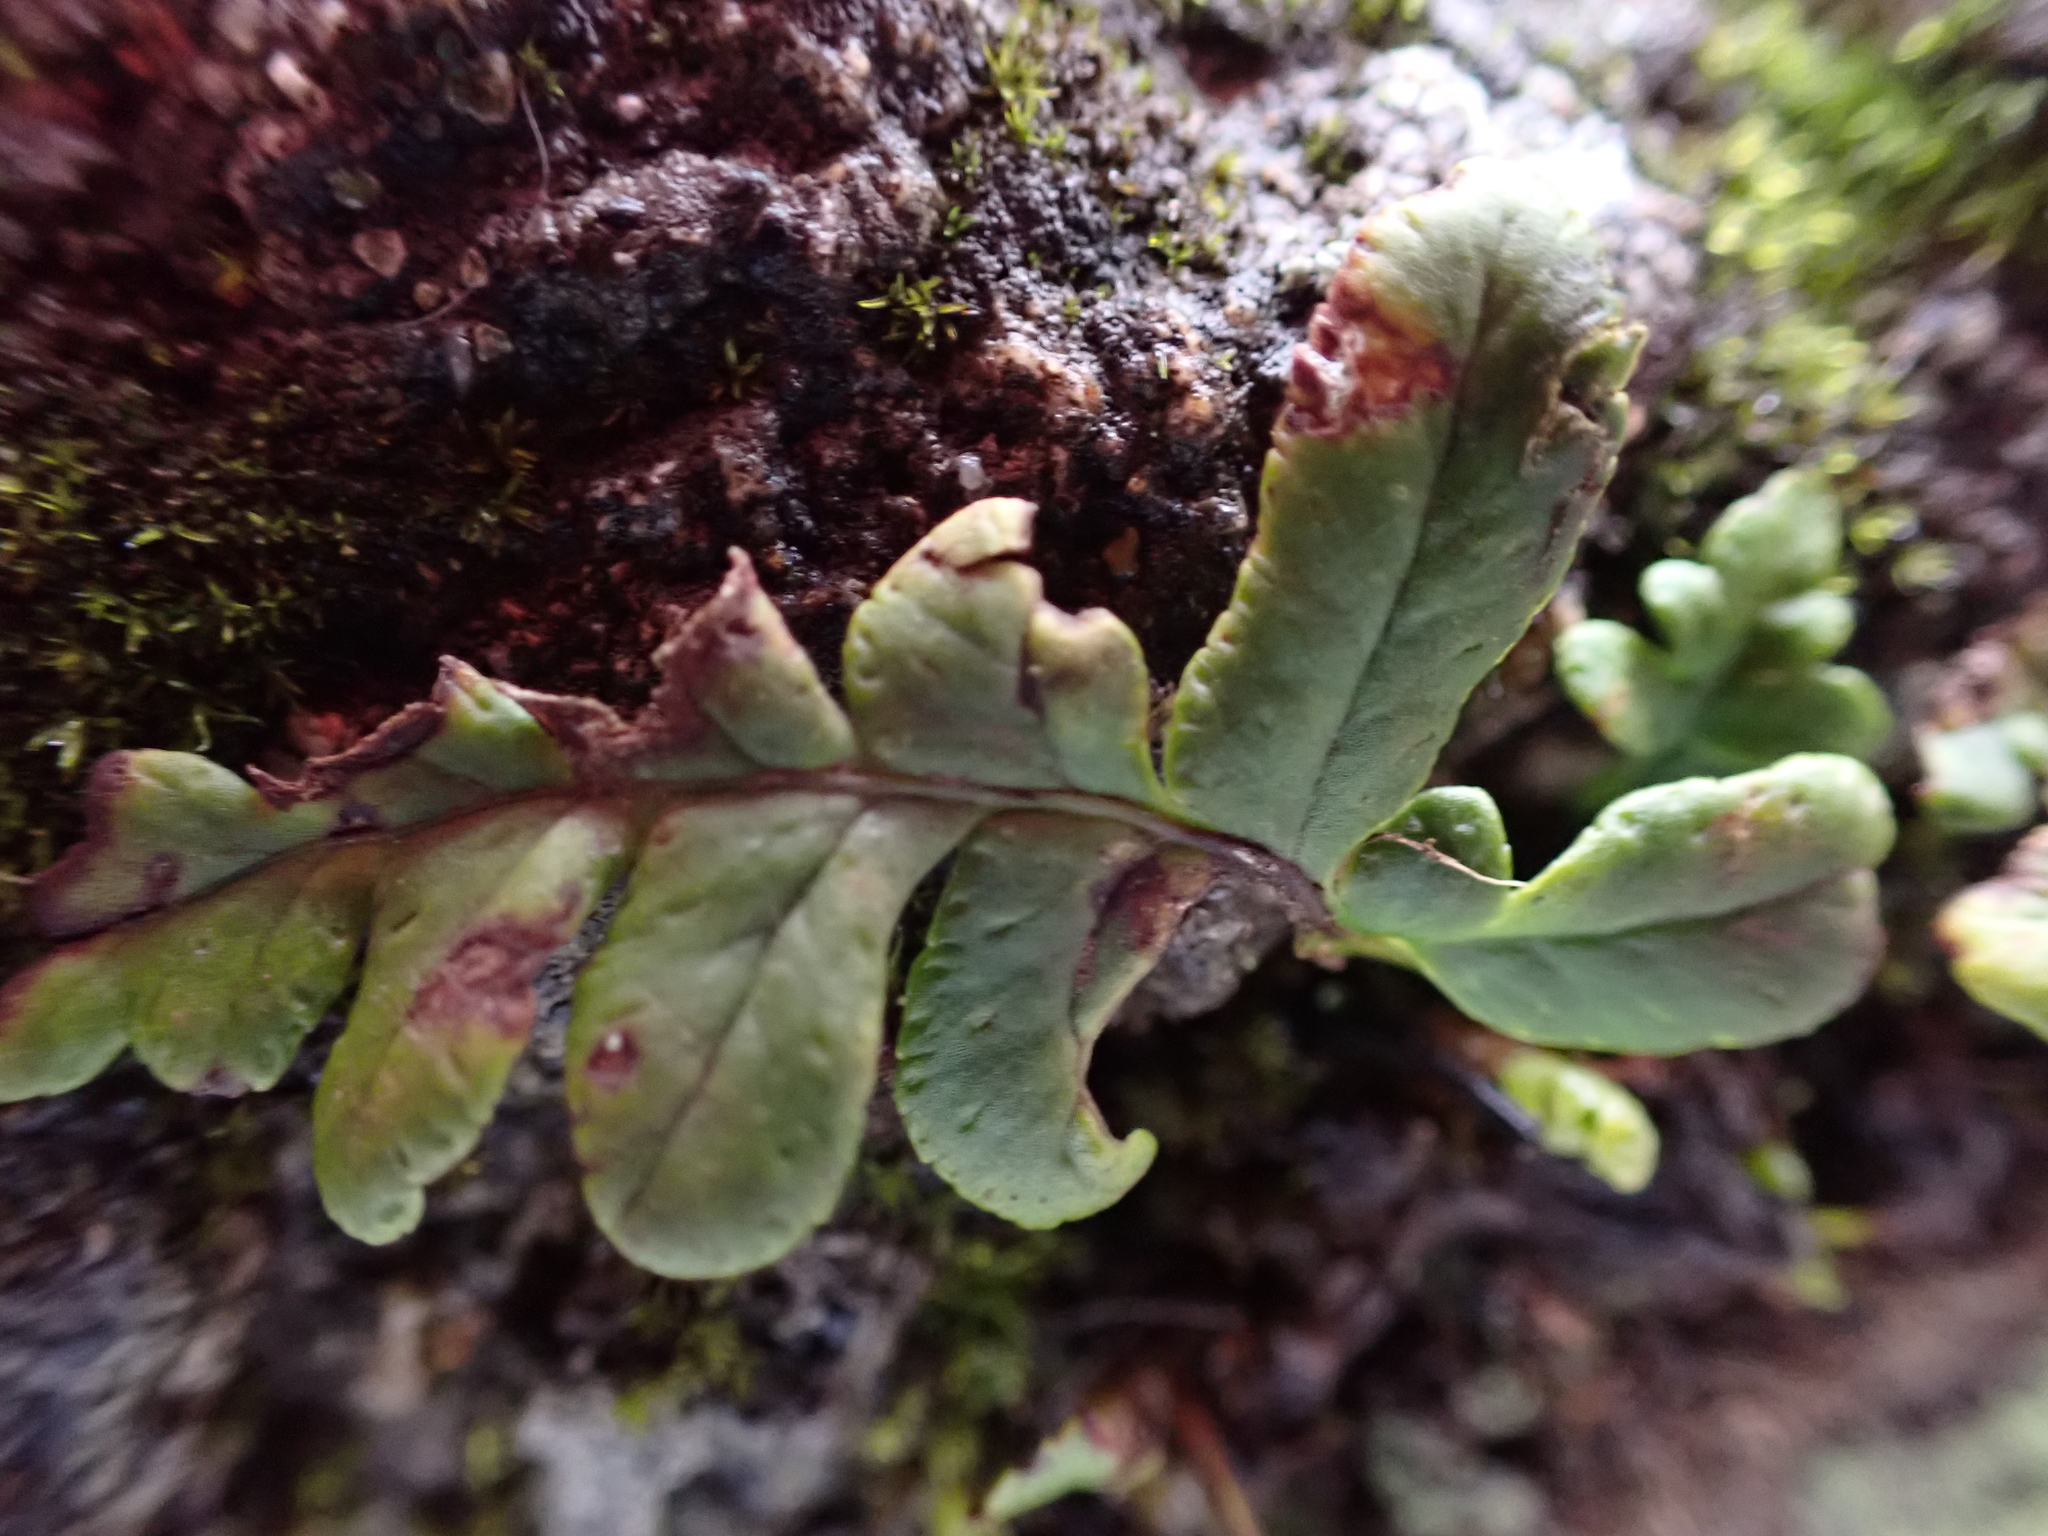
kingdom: Plantae
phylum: Tracheophyta
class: Polypodiopsida
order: Polypodiales
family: Polypodiaceae
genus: Polypodium
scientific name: Polypodium glycyrrhiza
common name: Licorice fern
